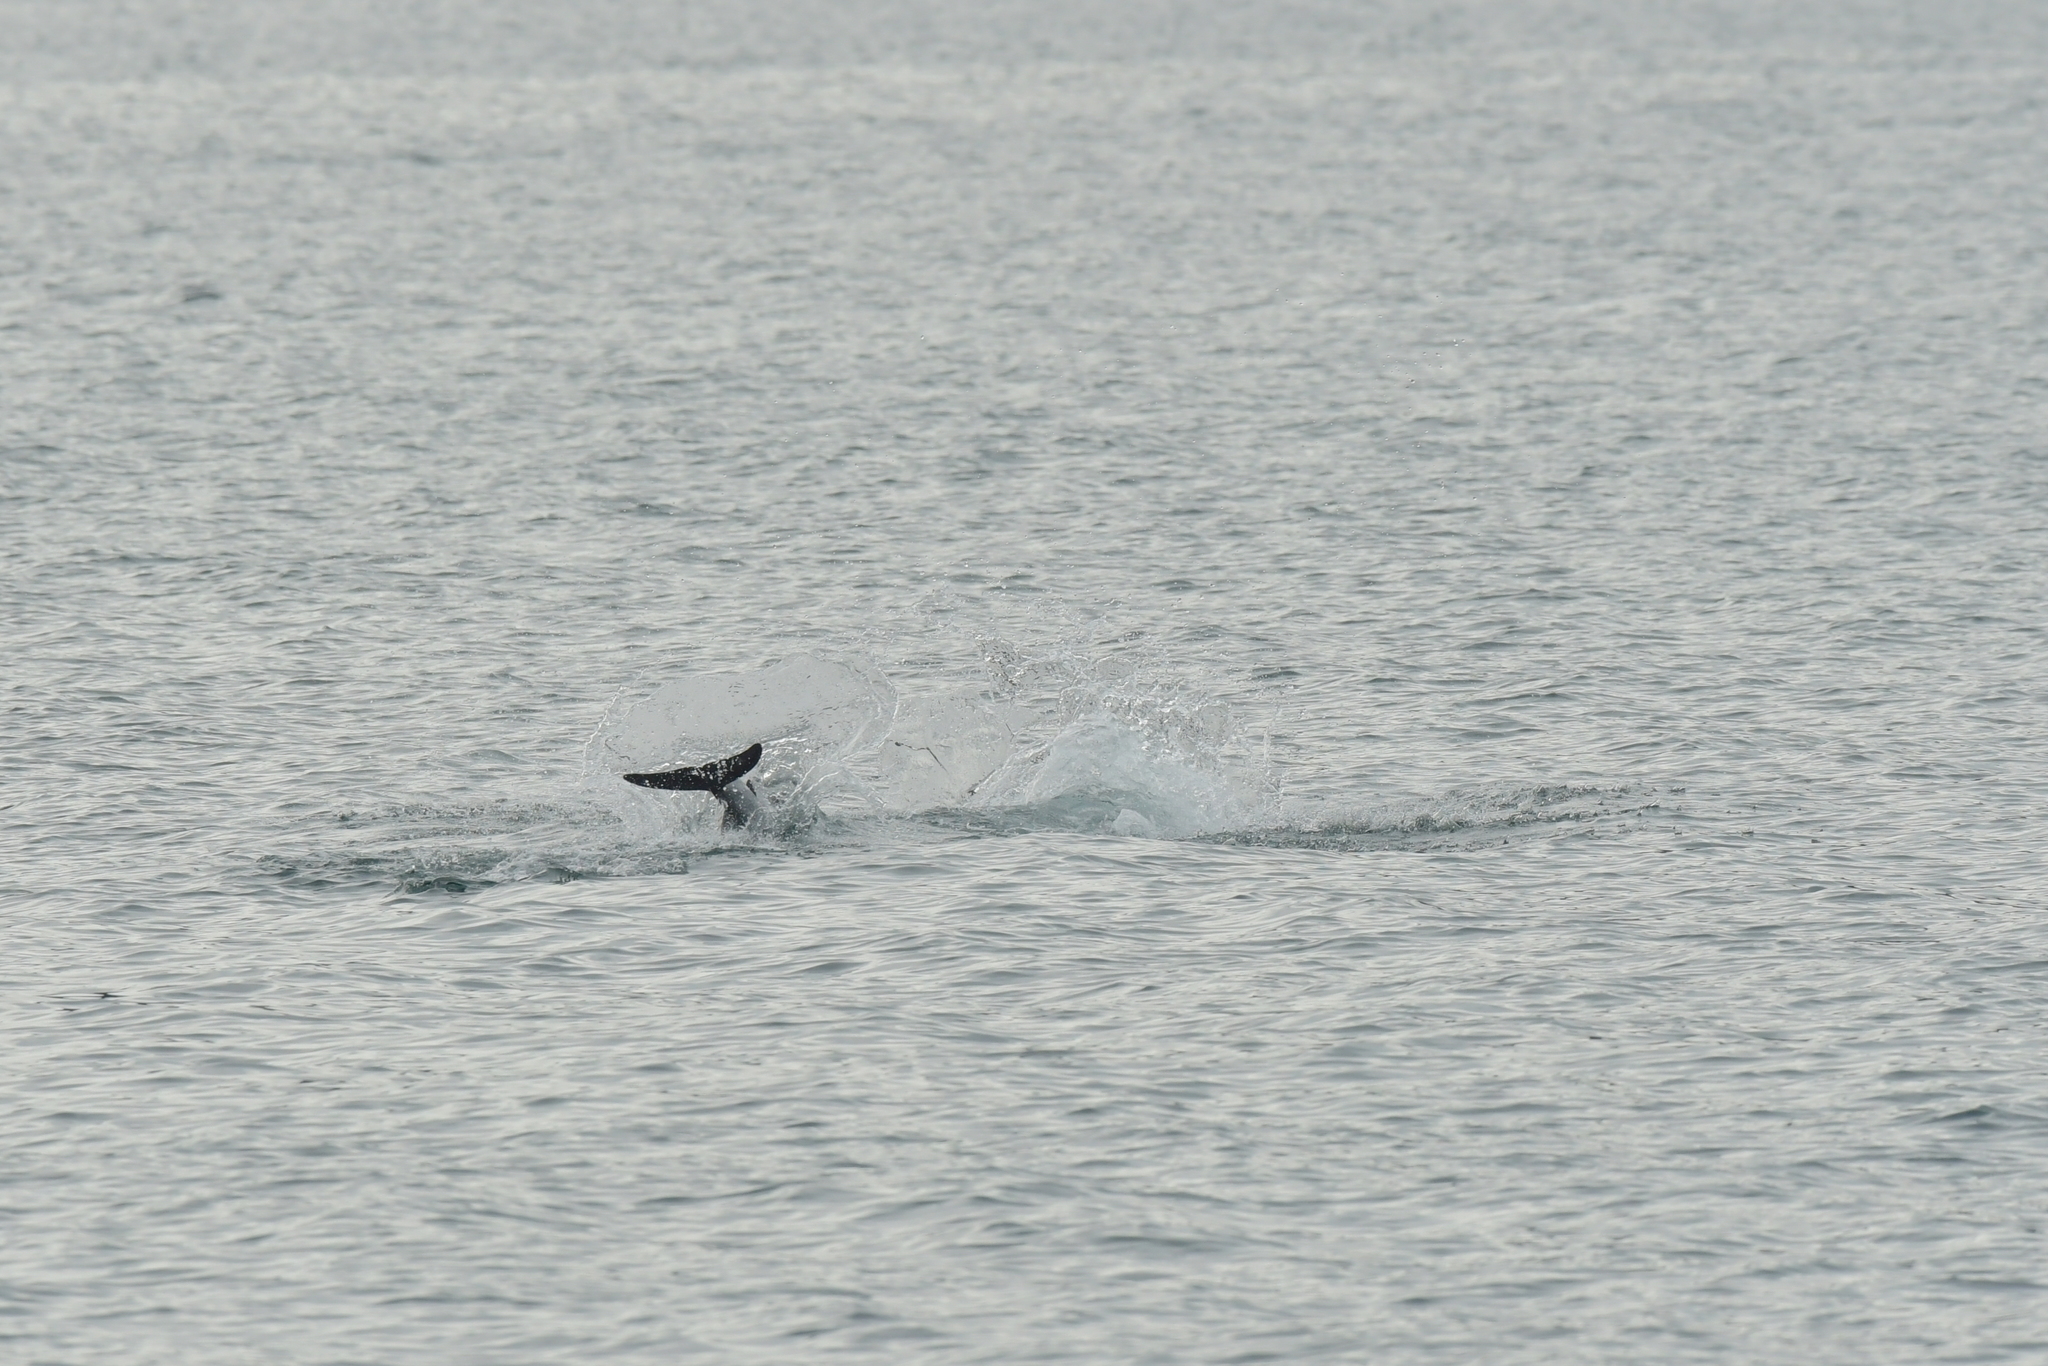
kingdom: Animalia
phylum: Chordata
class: Mammalia
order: Cetacea
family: Delphinidae
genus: Cephalorhynchus
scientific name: Cephalorhynchus hectori
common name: Hector's dolphin
